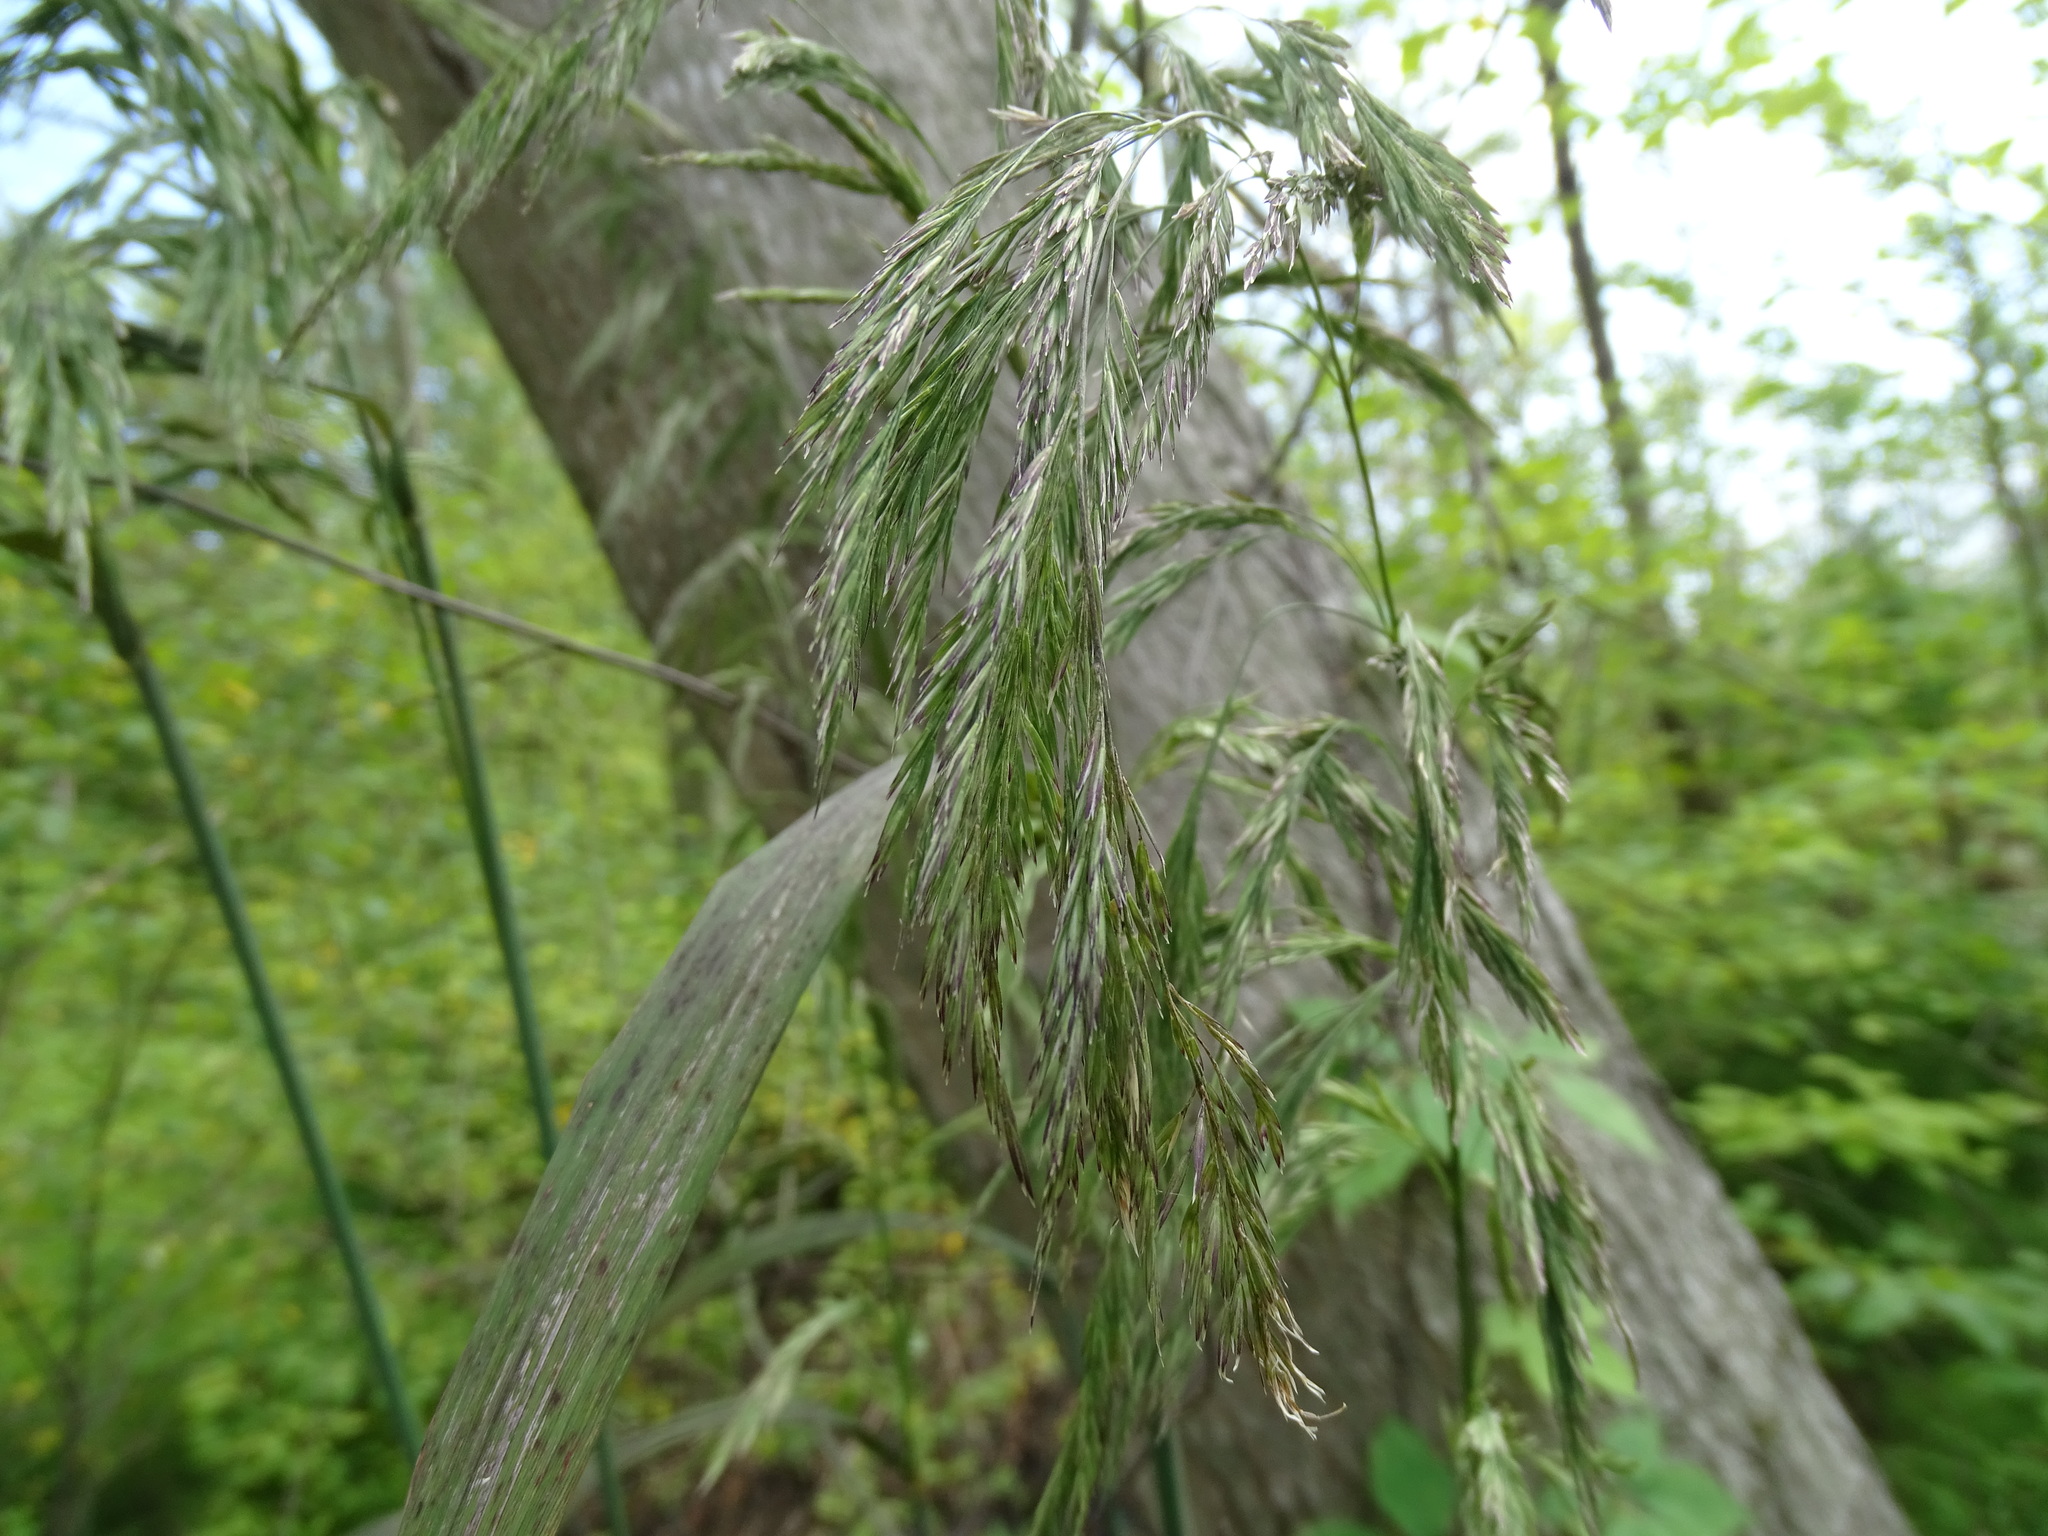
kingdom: Plantae
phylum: Tracheophyta
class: Liliopsida
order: Poales
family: Poaceae
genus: Cinna
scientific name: Cinna arundinacea
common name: Stout woodreed
